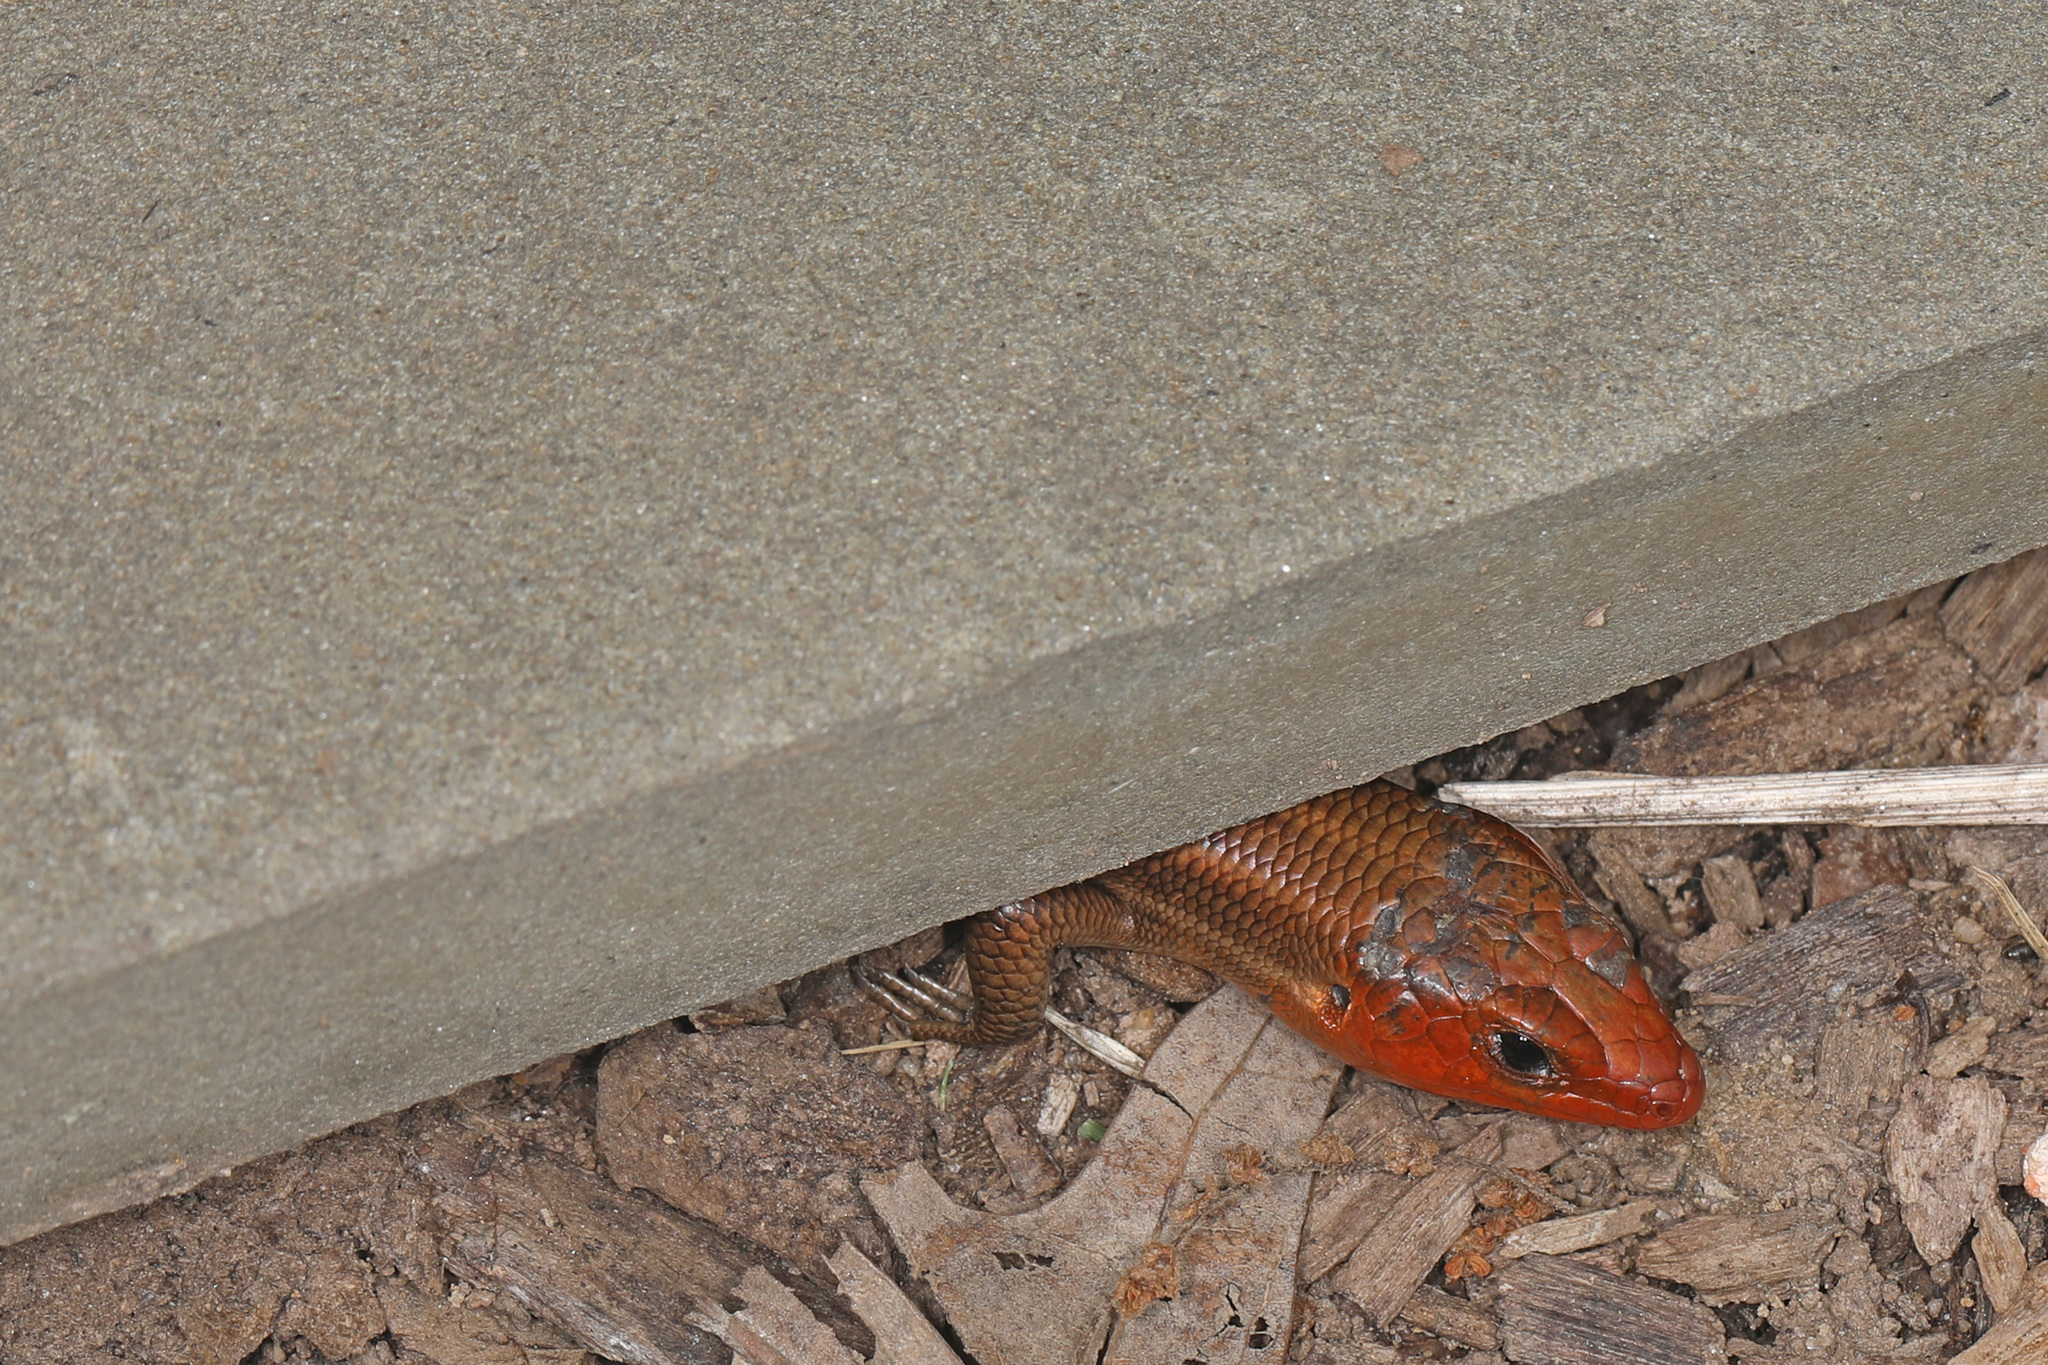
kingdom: Animalia
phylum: Chordata
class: Squamata
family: Scincidae
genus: Plestiodon
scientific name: Plestiodon fasciatus
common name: Five-lined skink
